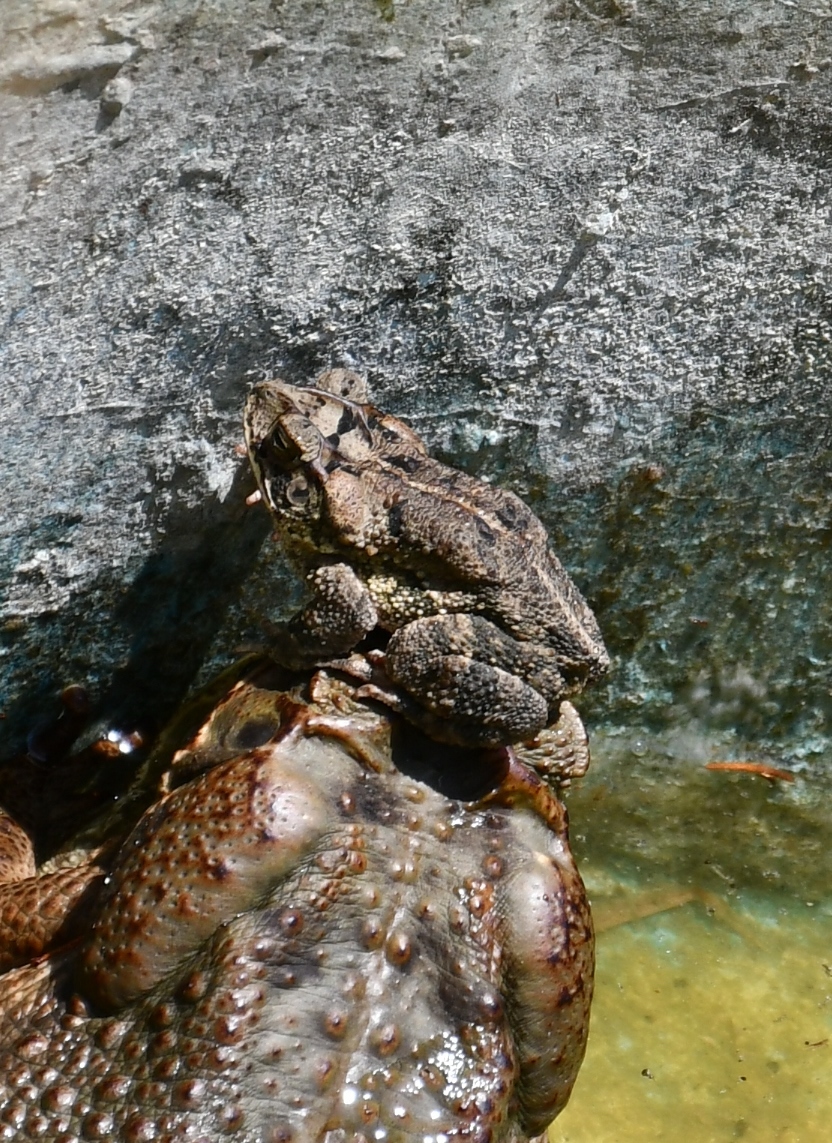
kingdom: Animalia
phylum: Chordata
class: Amphibia
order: Anura
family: Bufonidae
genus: Incilius
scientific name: Incilius valliceps
